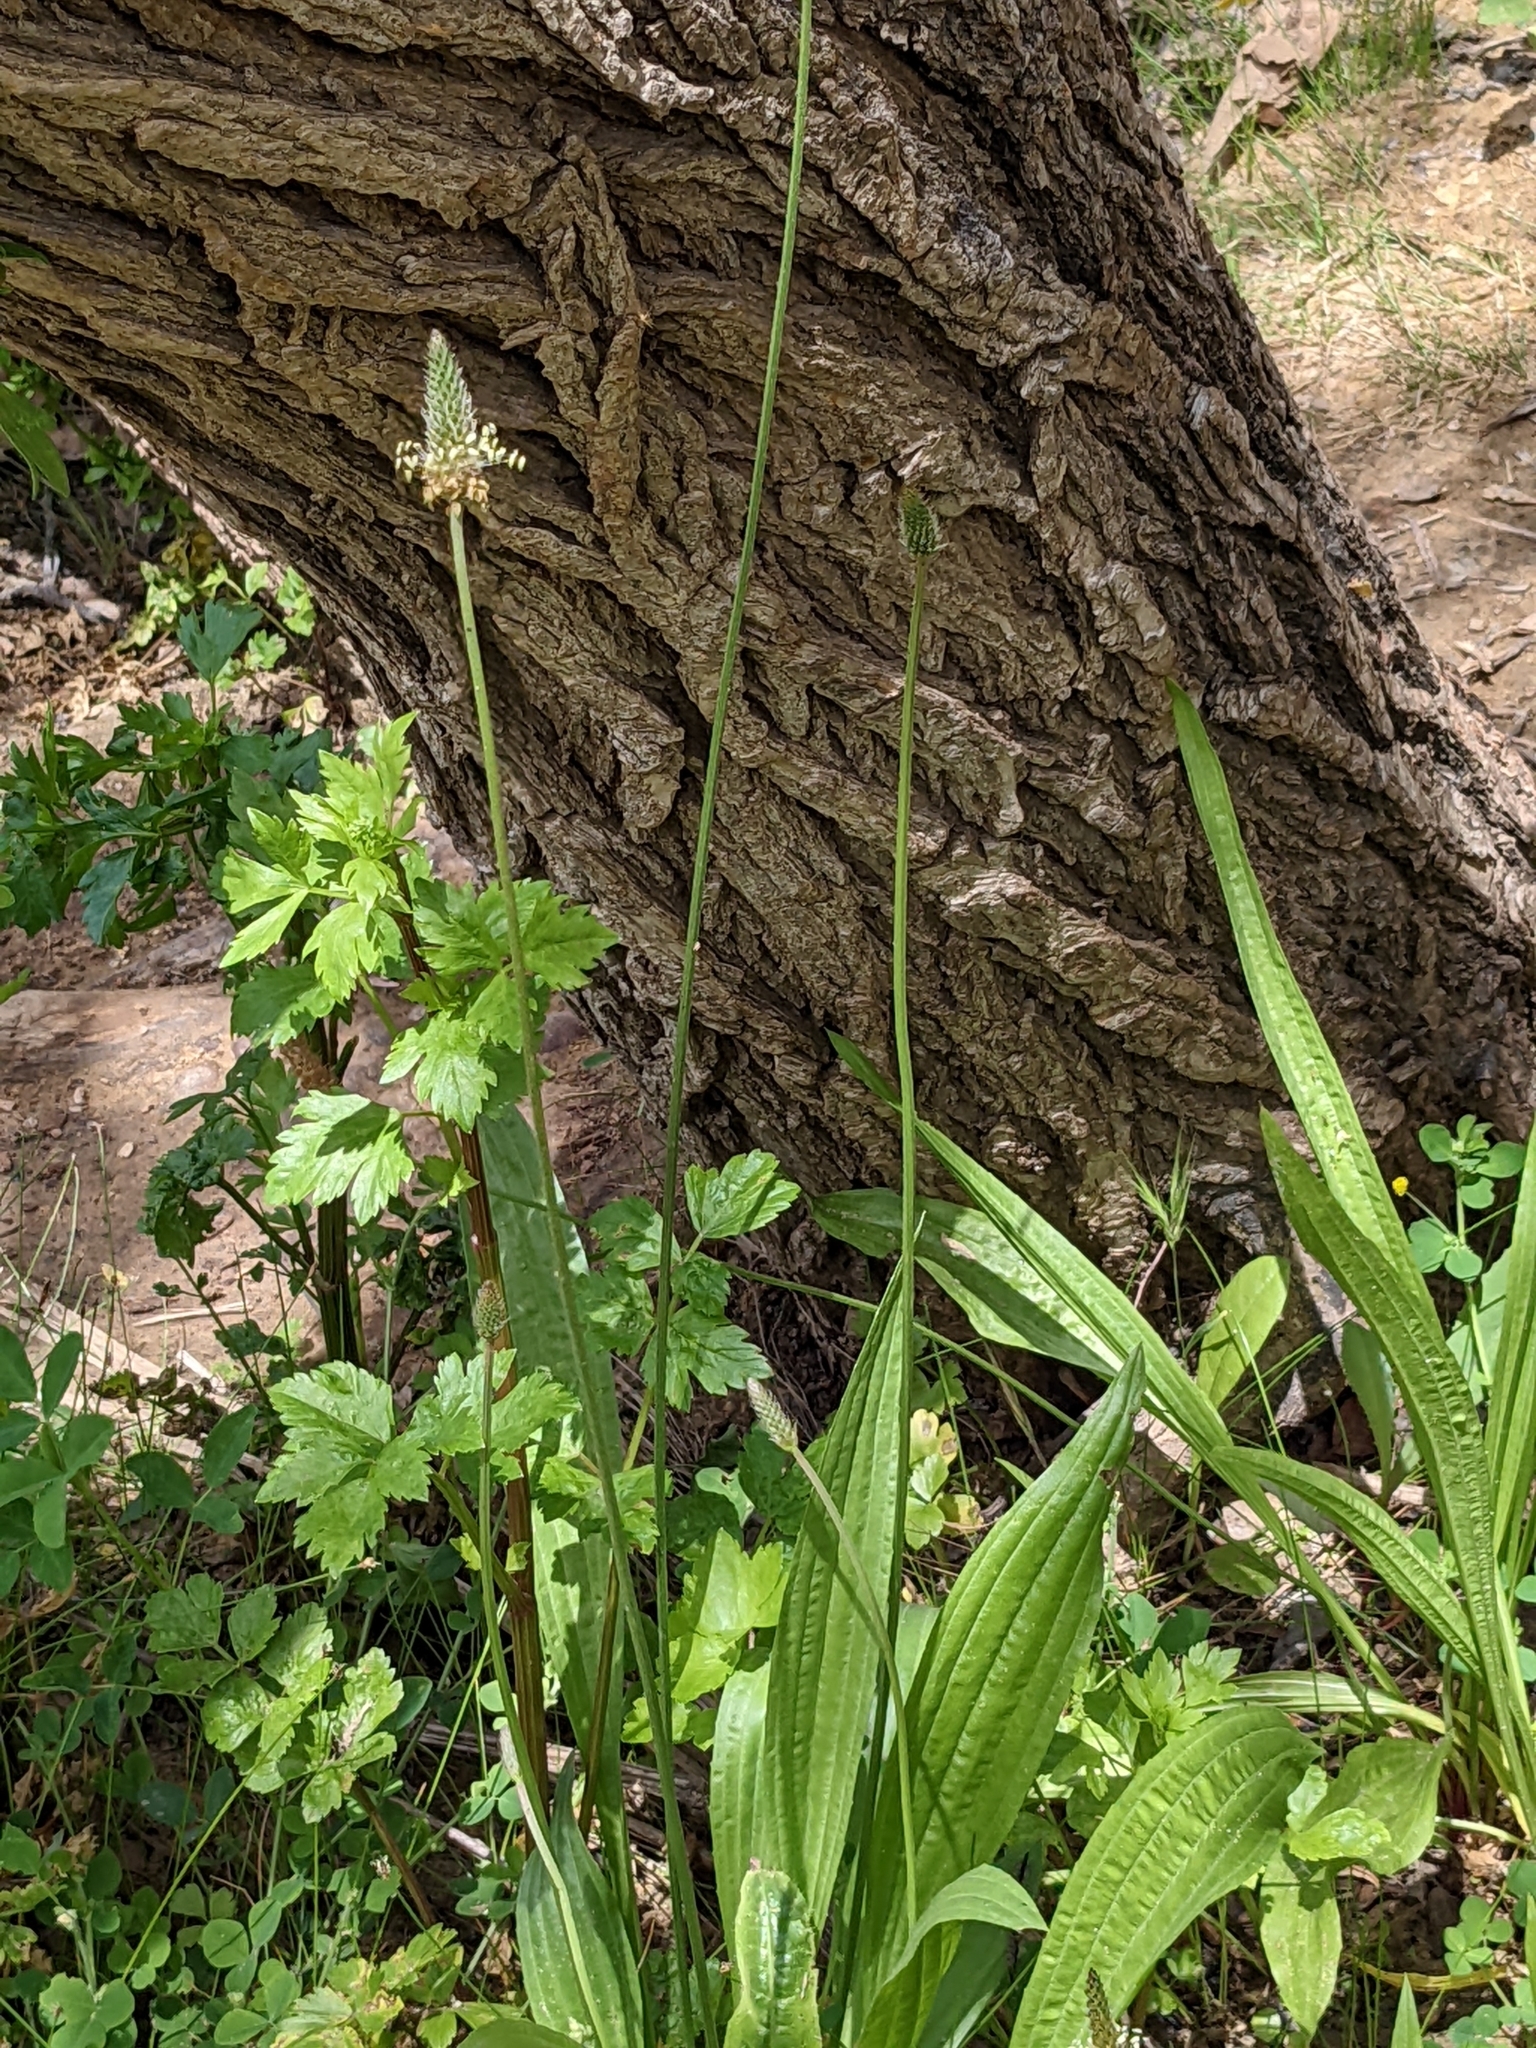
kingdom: Plantae
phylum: Tracheophyta
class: Magnoliopsida
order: Lamiales
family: Plantaginaceae
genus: Plantago
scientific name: Plantago lanceolata
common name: Ribwort plantain
